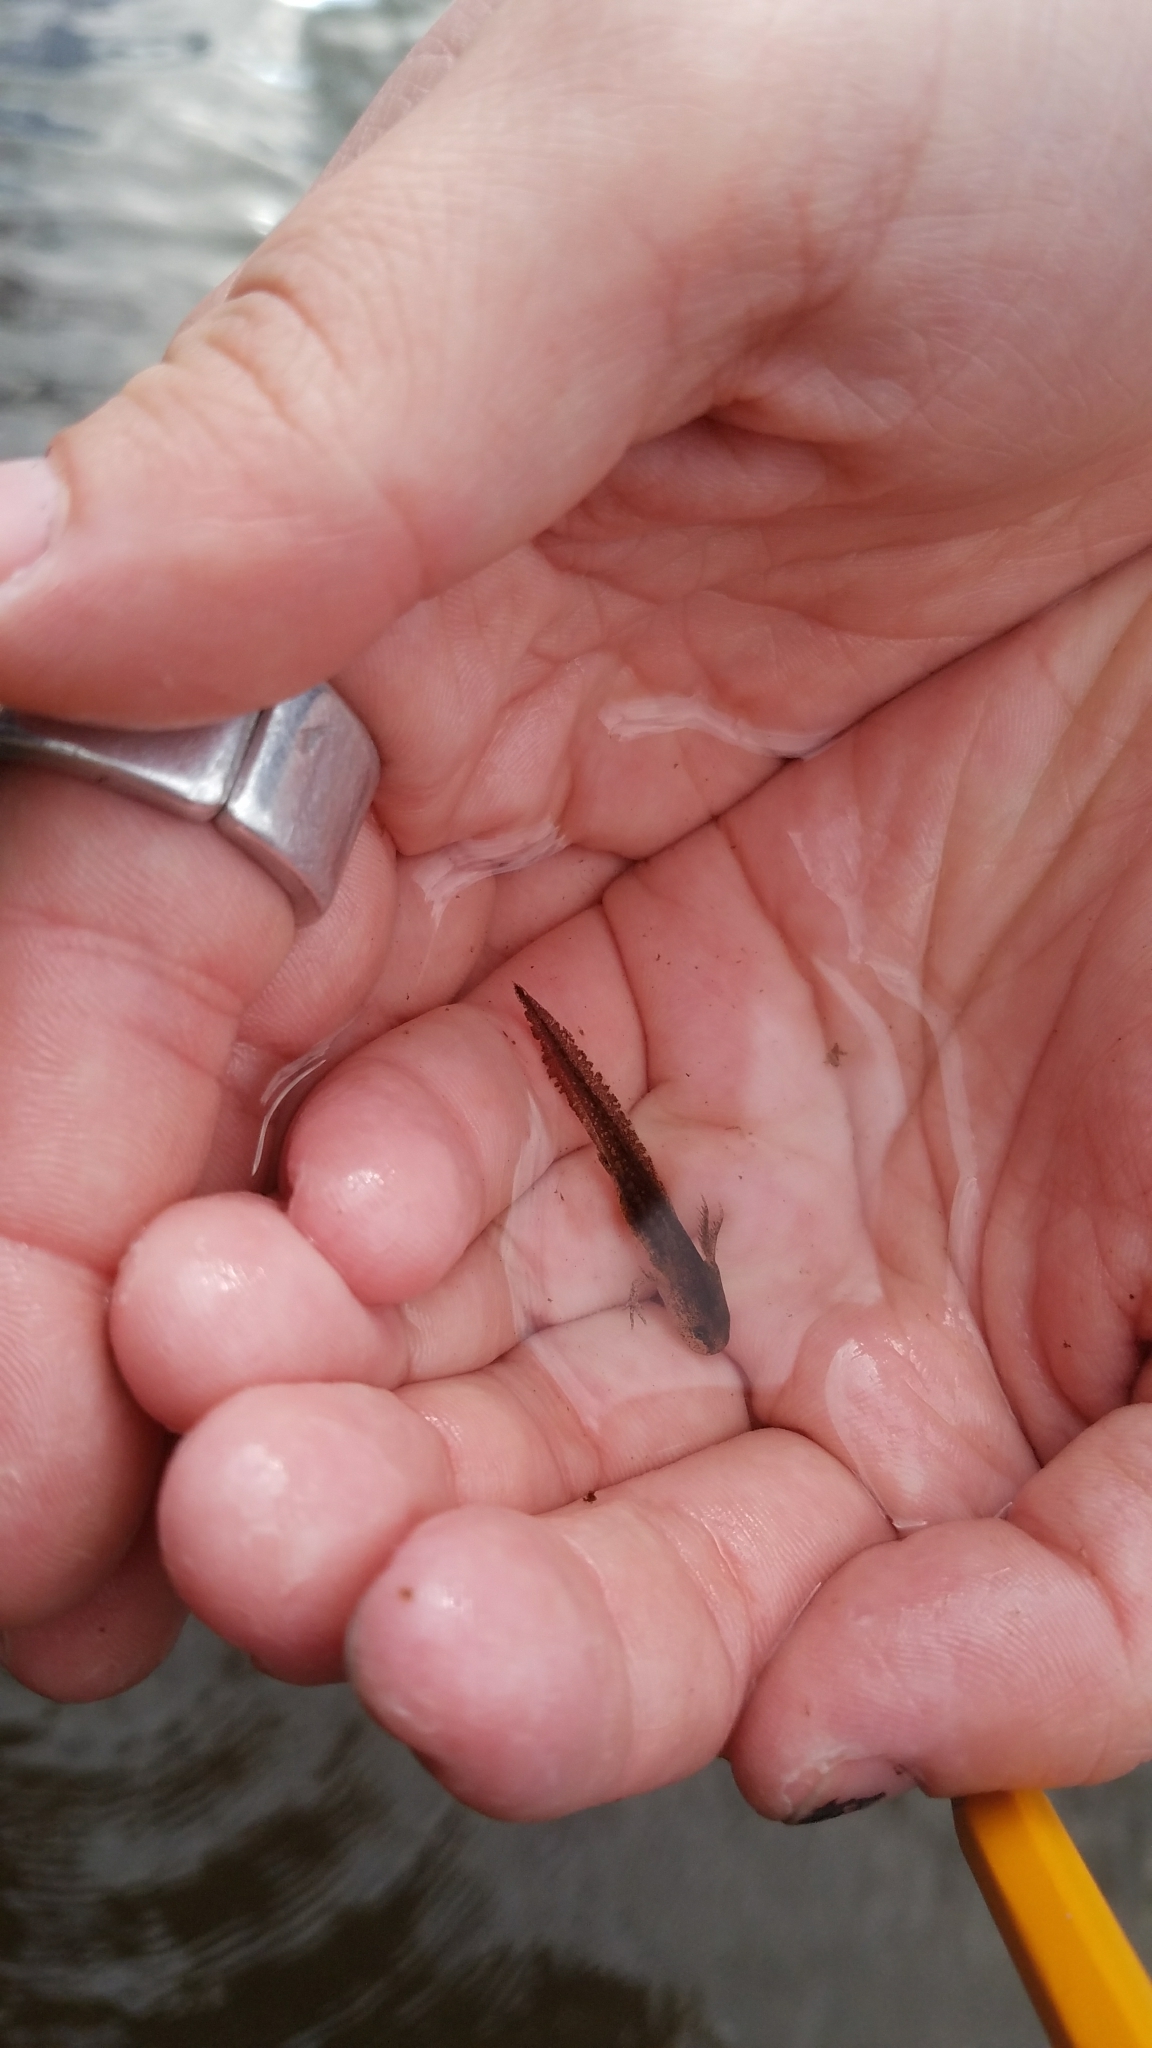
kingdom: Animalia
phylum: Chordata
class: Amphibia
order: Caudata
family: Ambystomatidae
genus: Ambystoma
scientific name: Ambystoma opacum
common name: Marbled salamander
